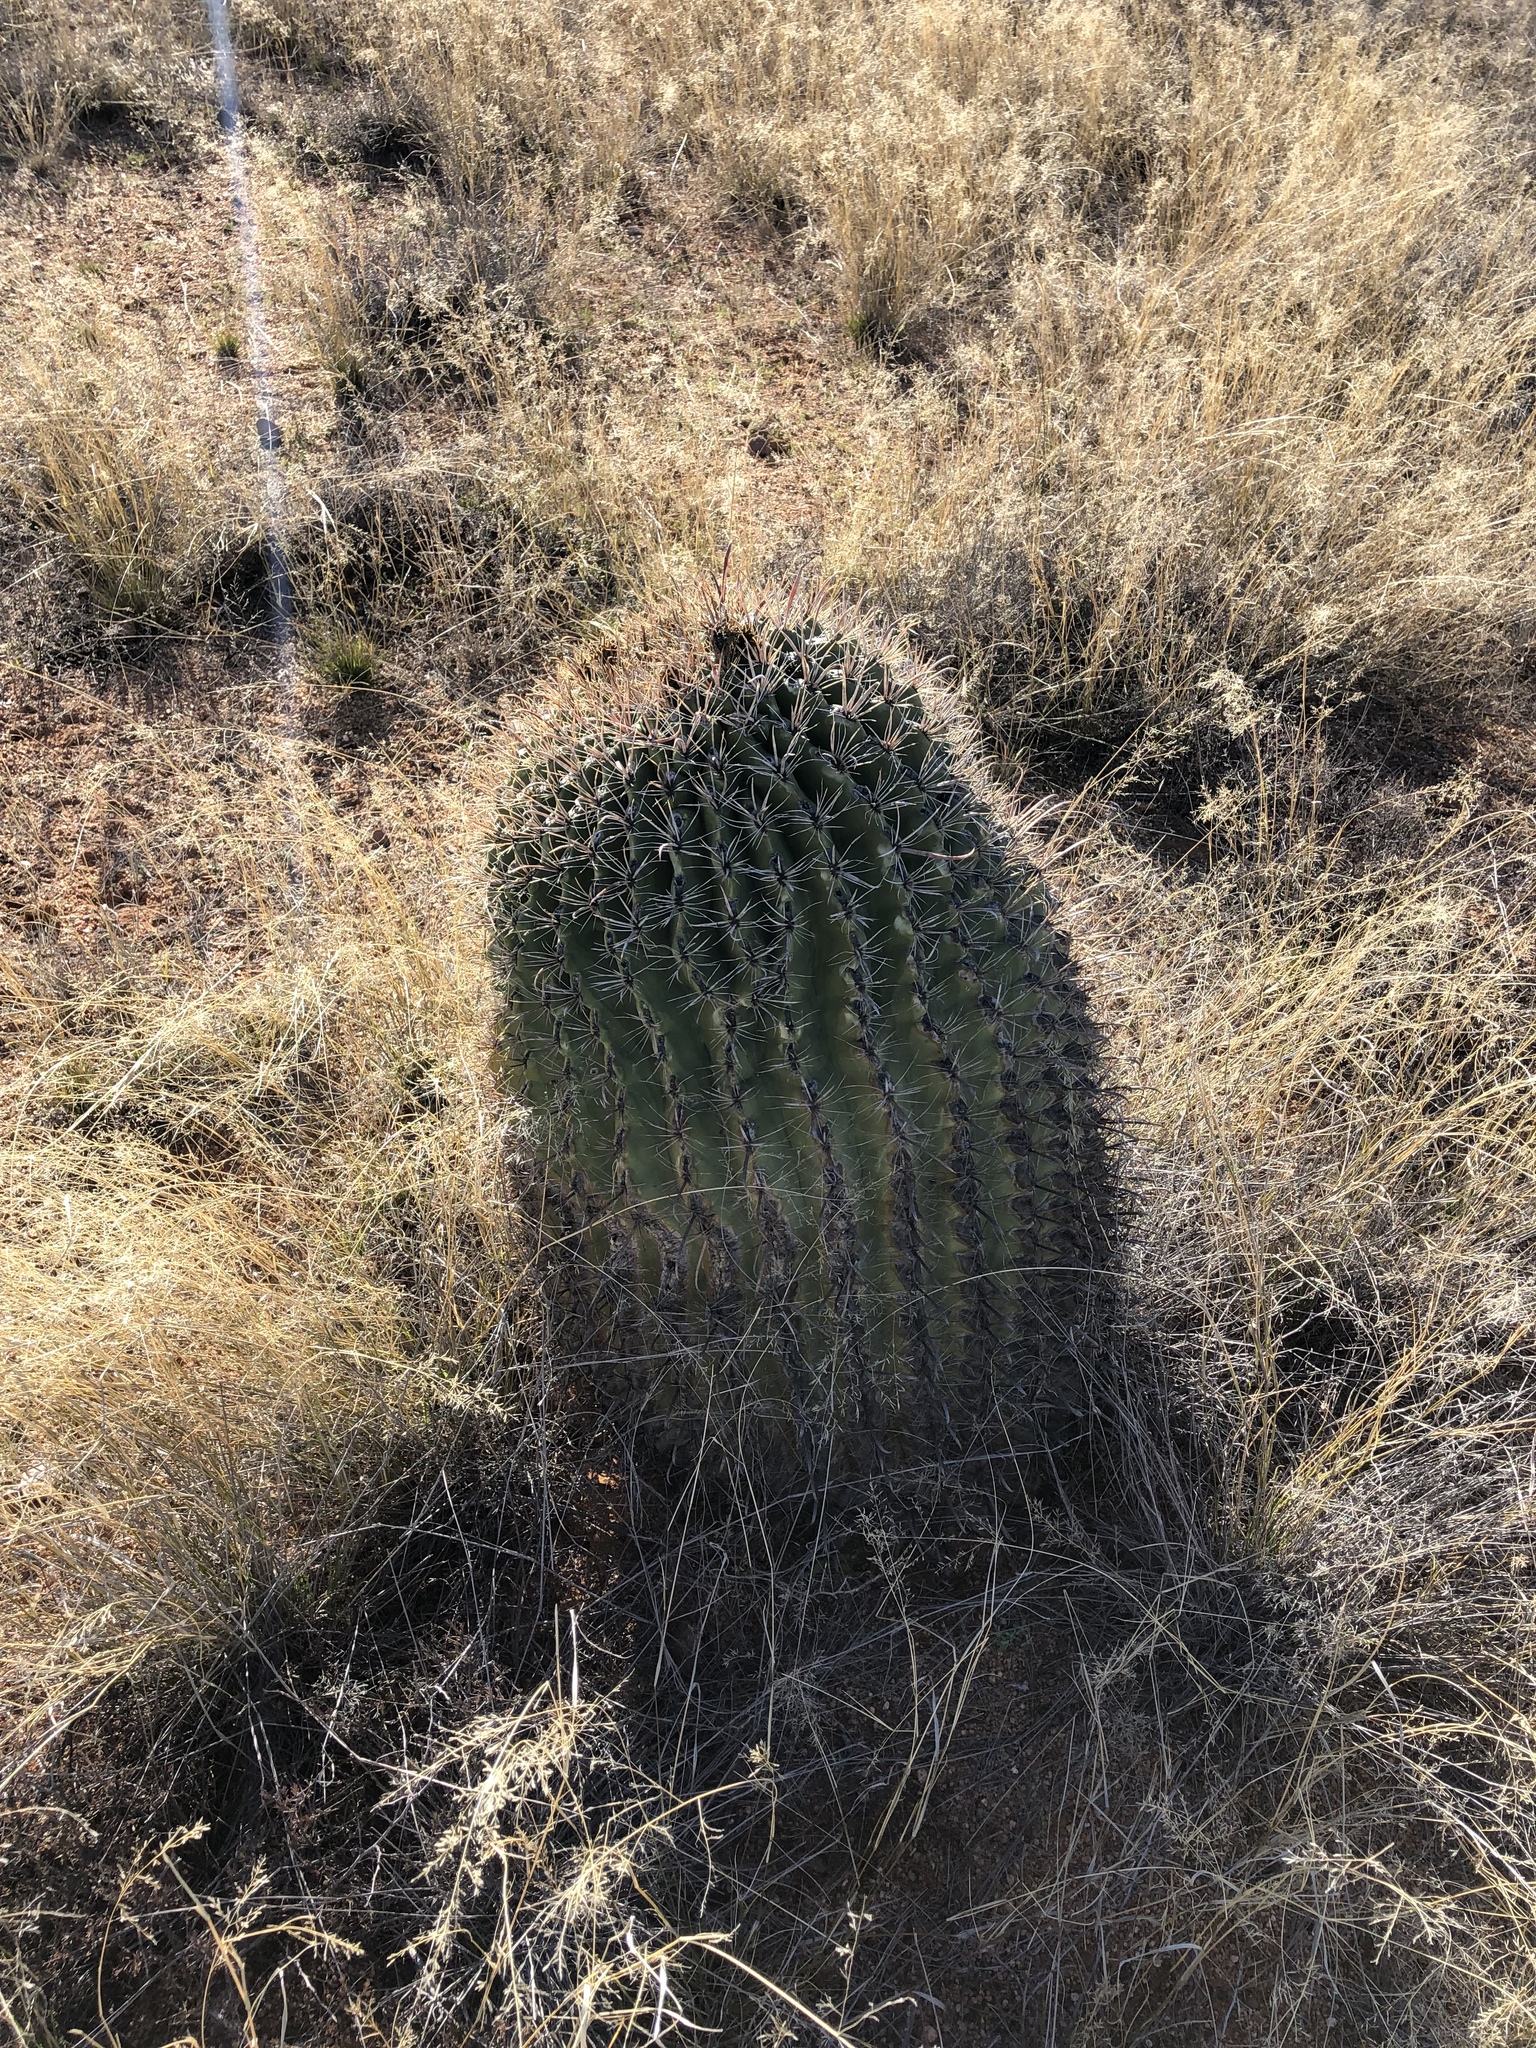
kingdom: Plantae
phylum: Tracheophyta
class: Magnoliopsida
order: Caryophyllales
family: Cactaceae
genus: Ferocactus
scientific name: Ferocactus wislizeni
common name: Candy barrel cactus
